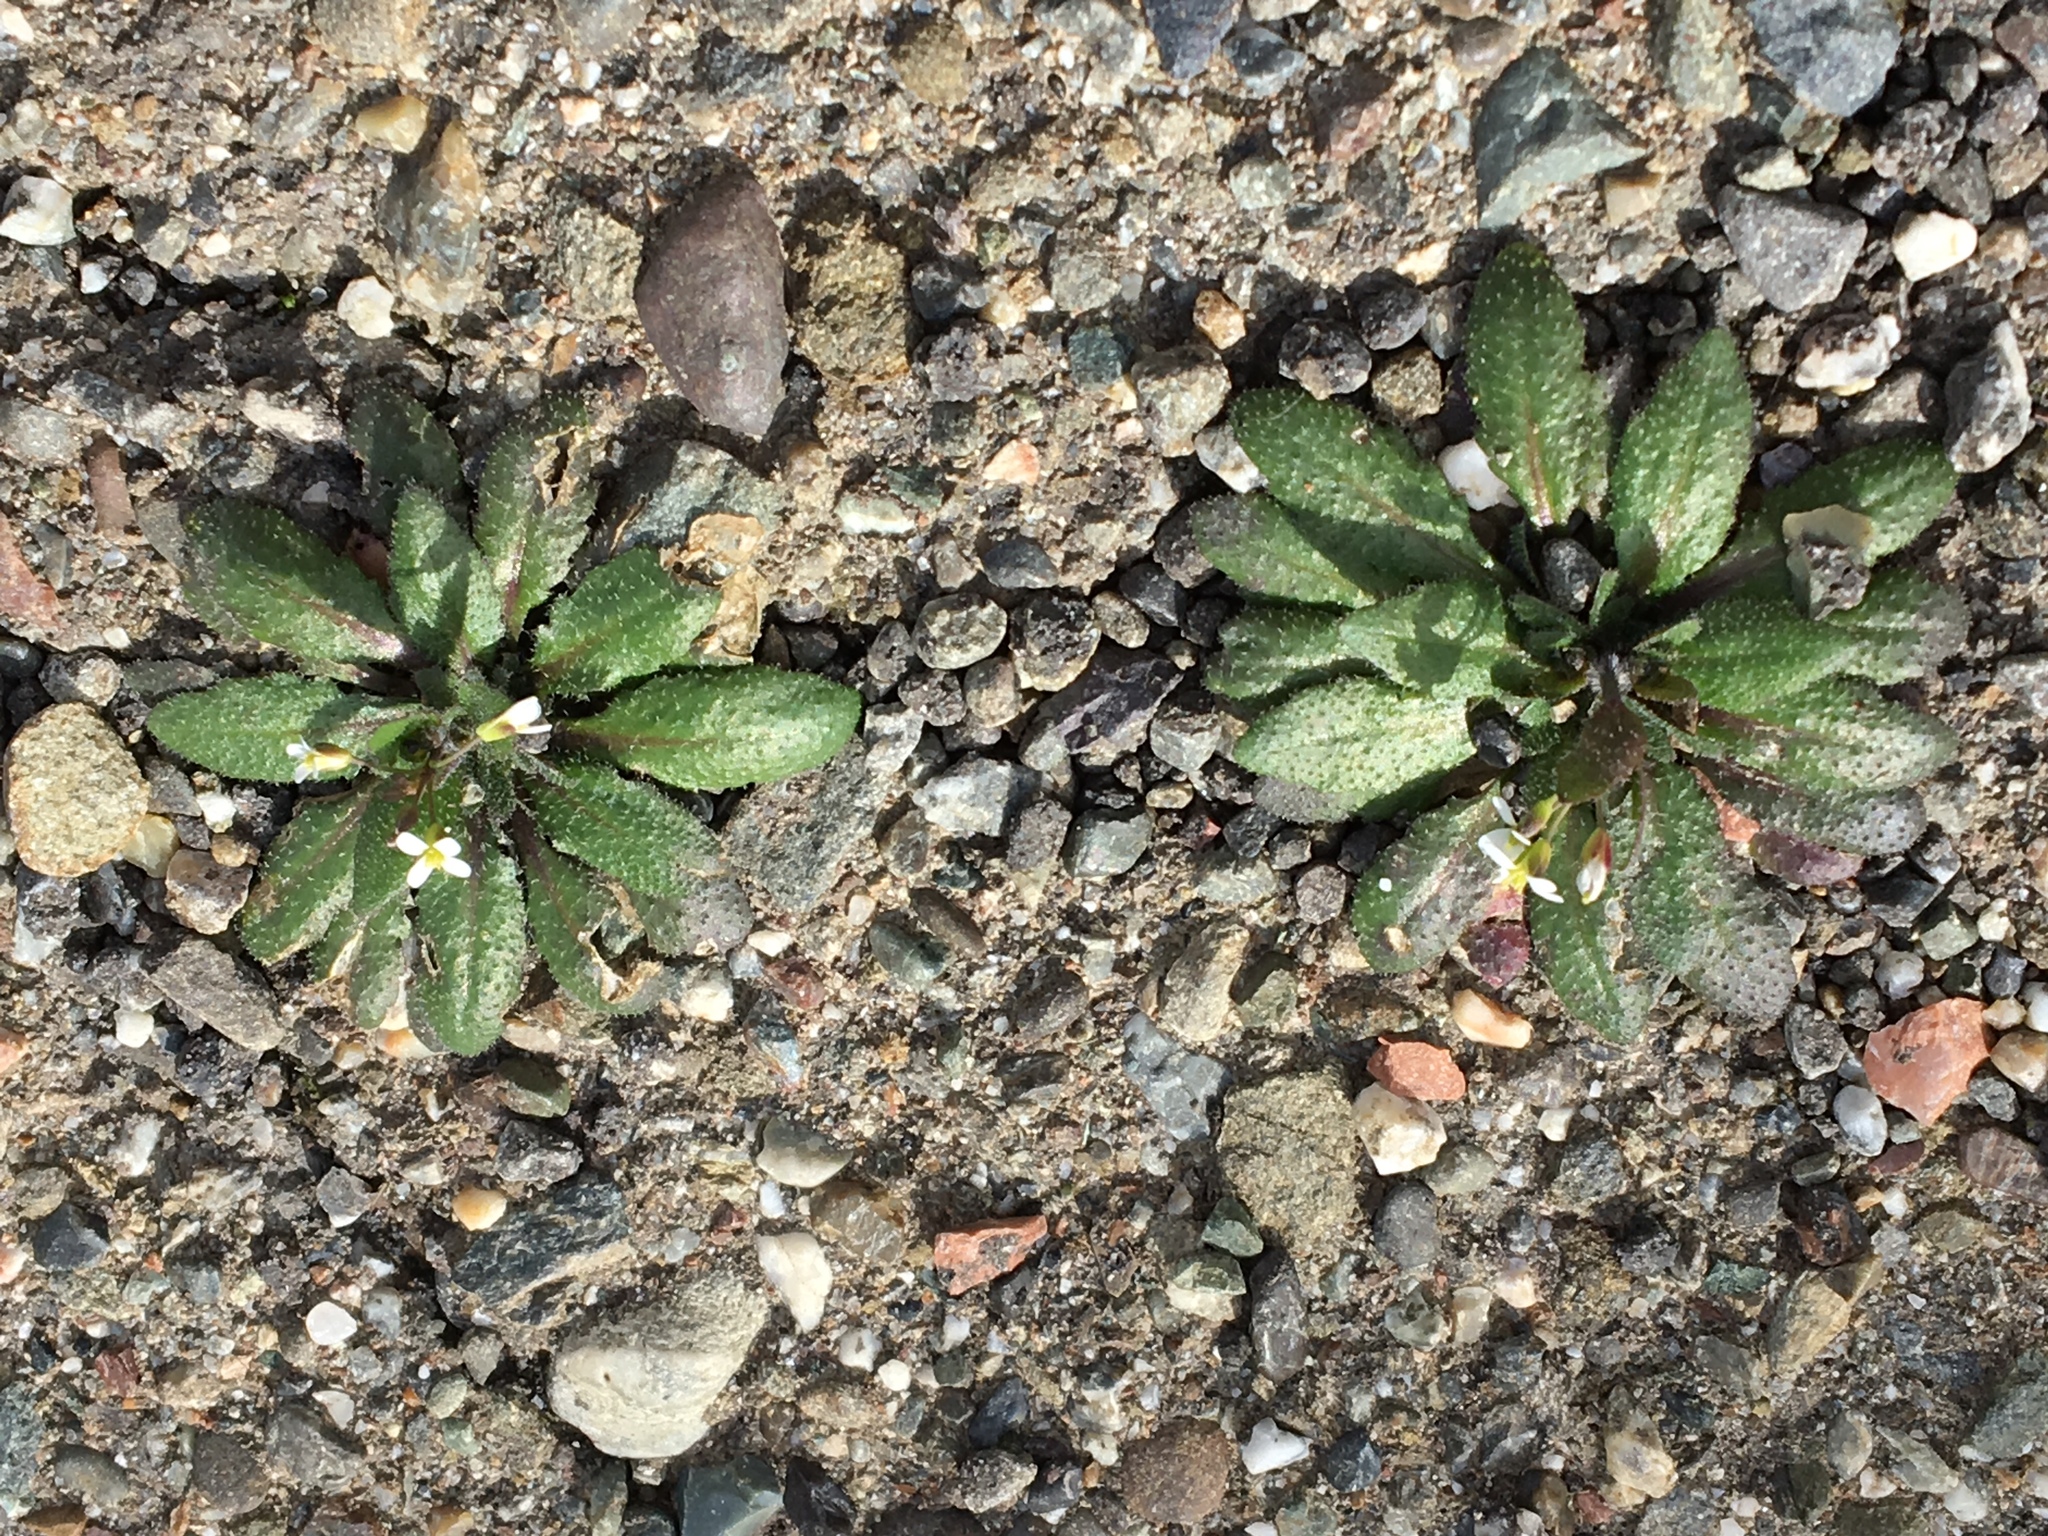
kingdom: Plantae
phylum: Tracheophyta
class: Magnoliopsida
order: Brassicales
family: Brassicaceae
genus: Arabidopsis
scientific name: Arabidopsis thaliana
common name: Thale cress
